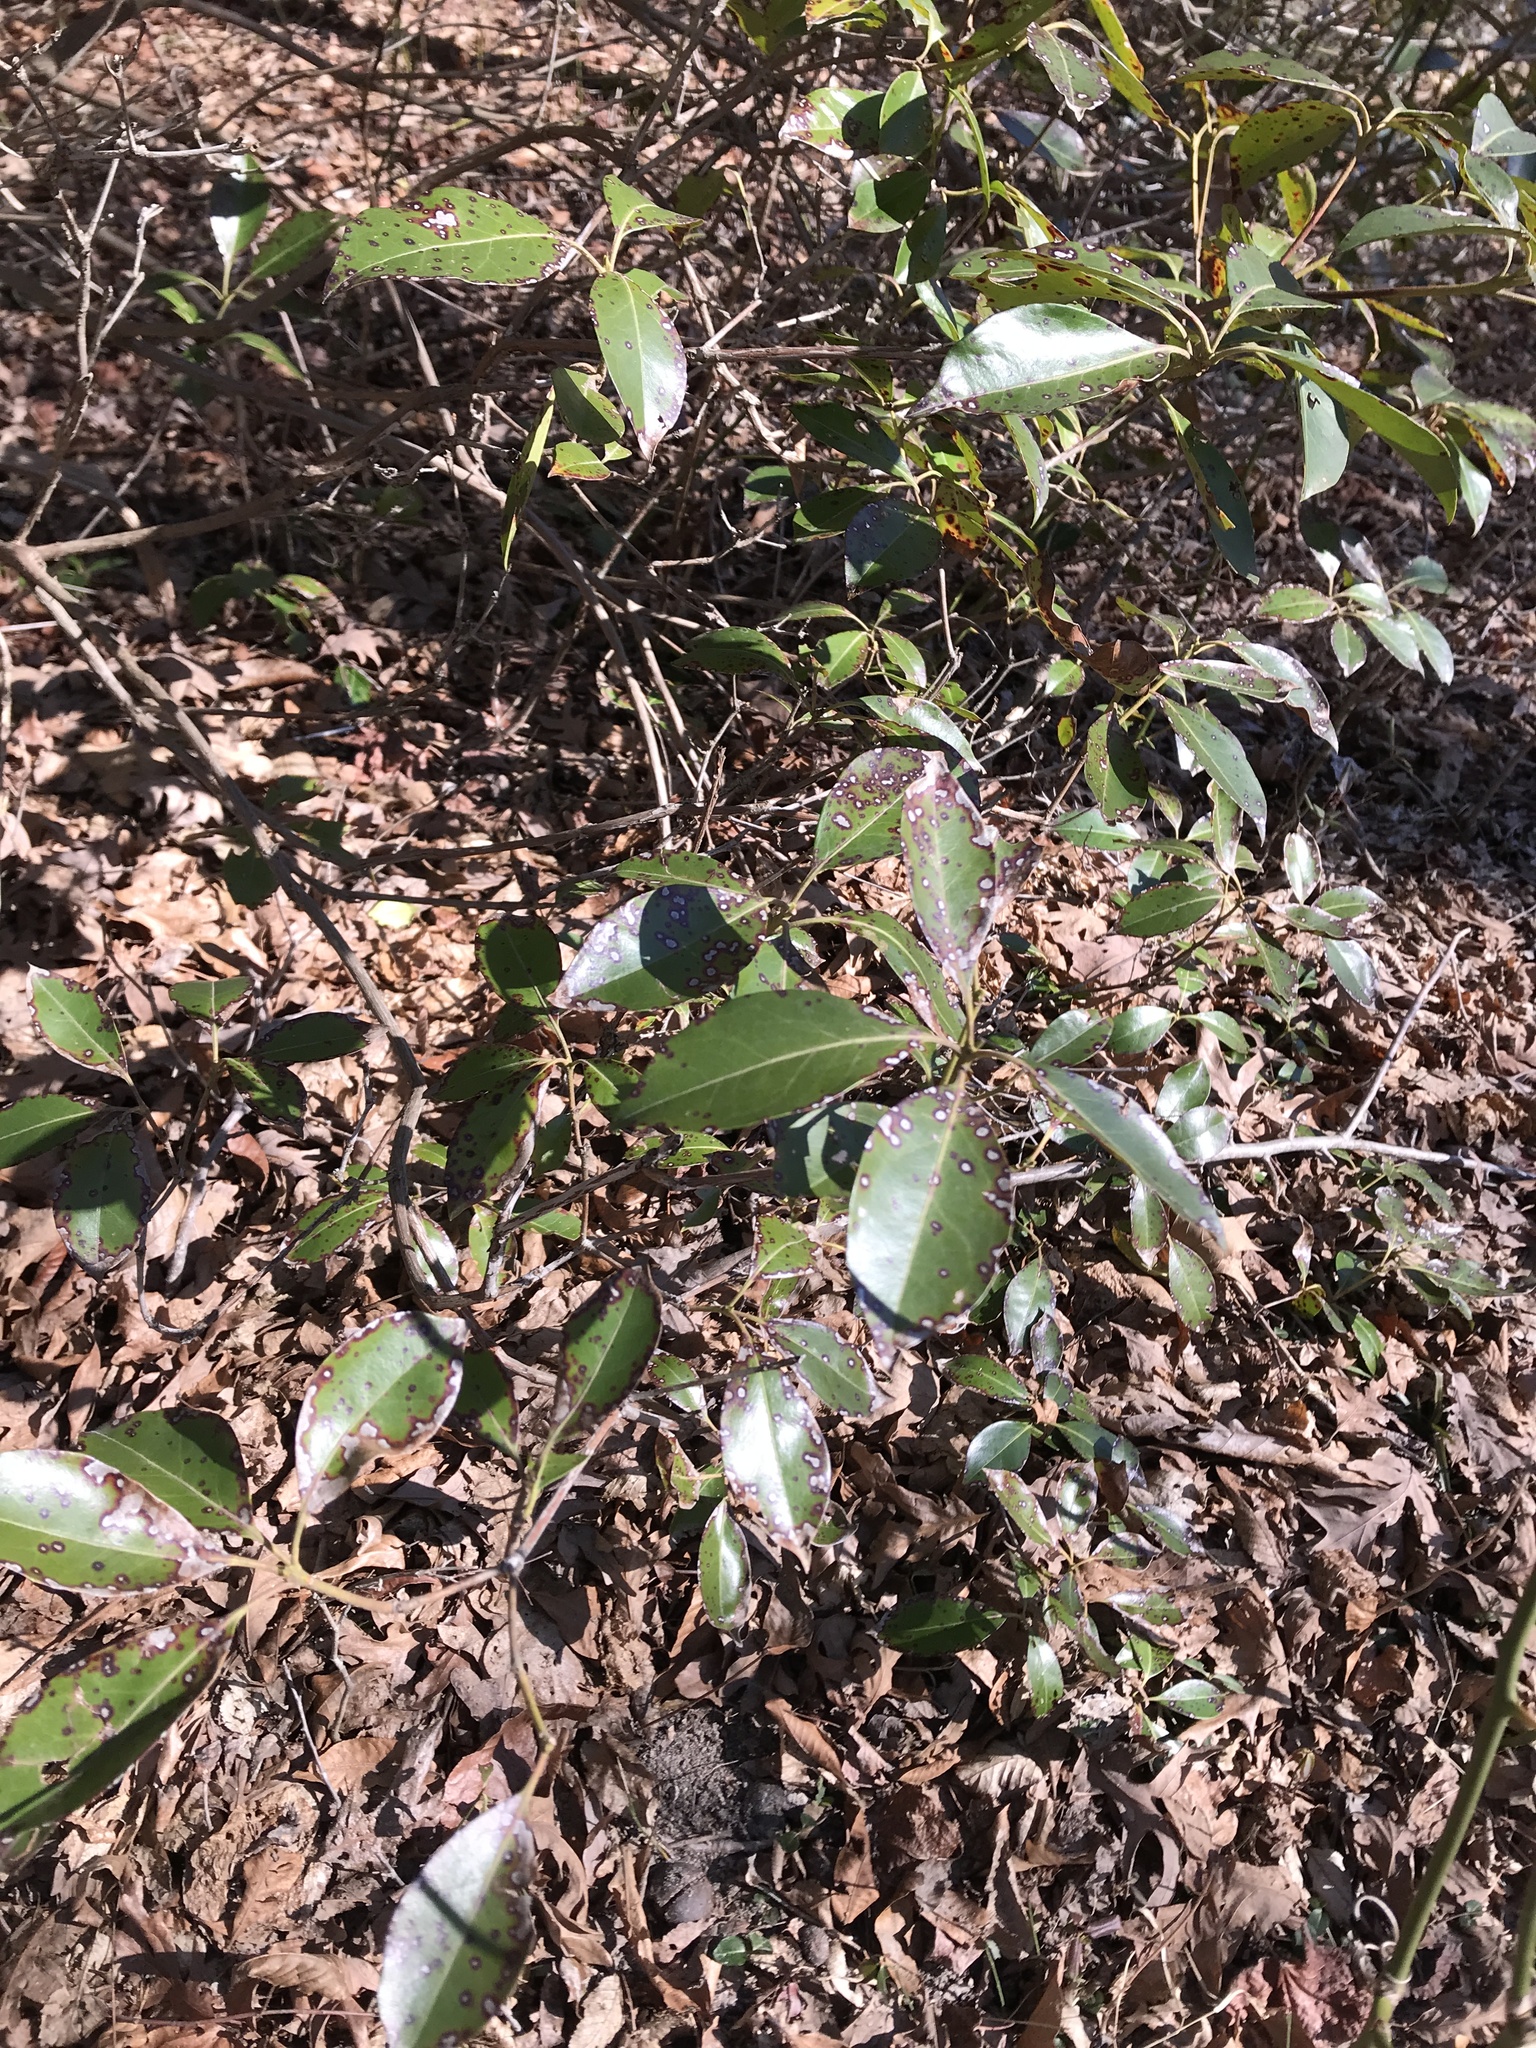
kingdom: Plantae
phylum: Tracheophyta
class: Magnoliopsida
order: Ericales
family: Ericaceae
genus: Kalmia
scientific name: Kalmia latifolia
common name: Mountain-laurel
